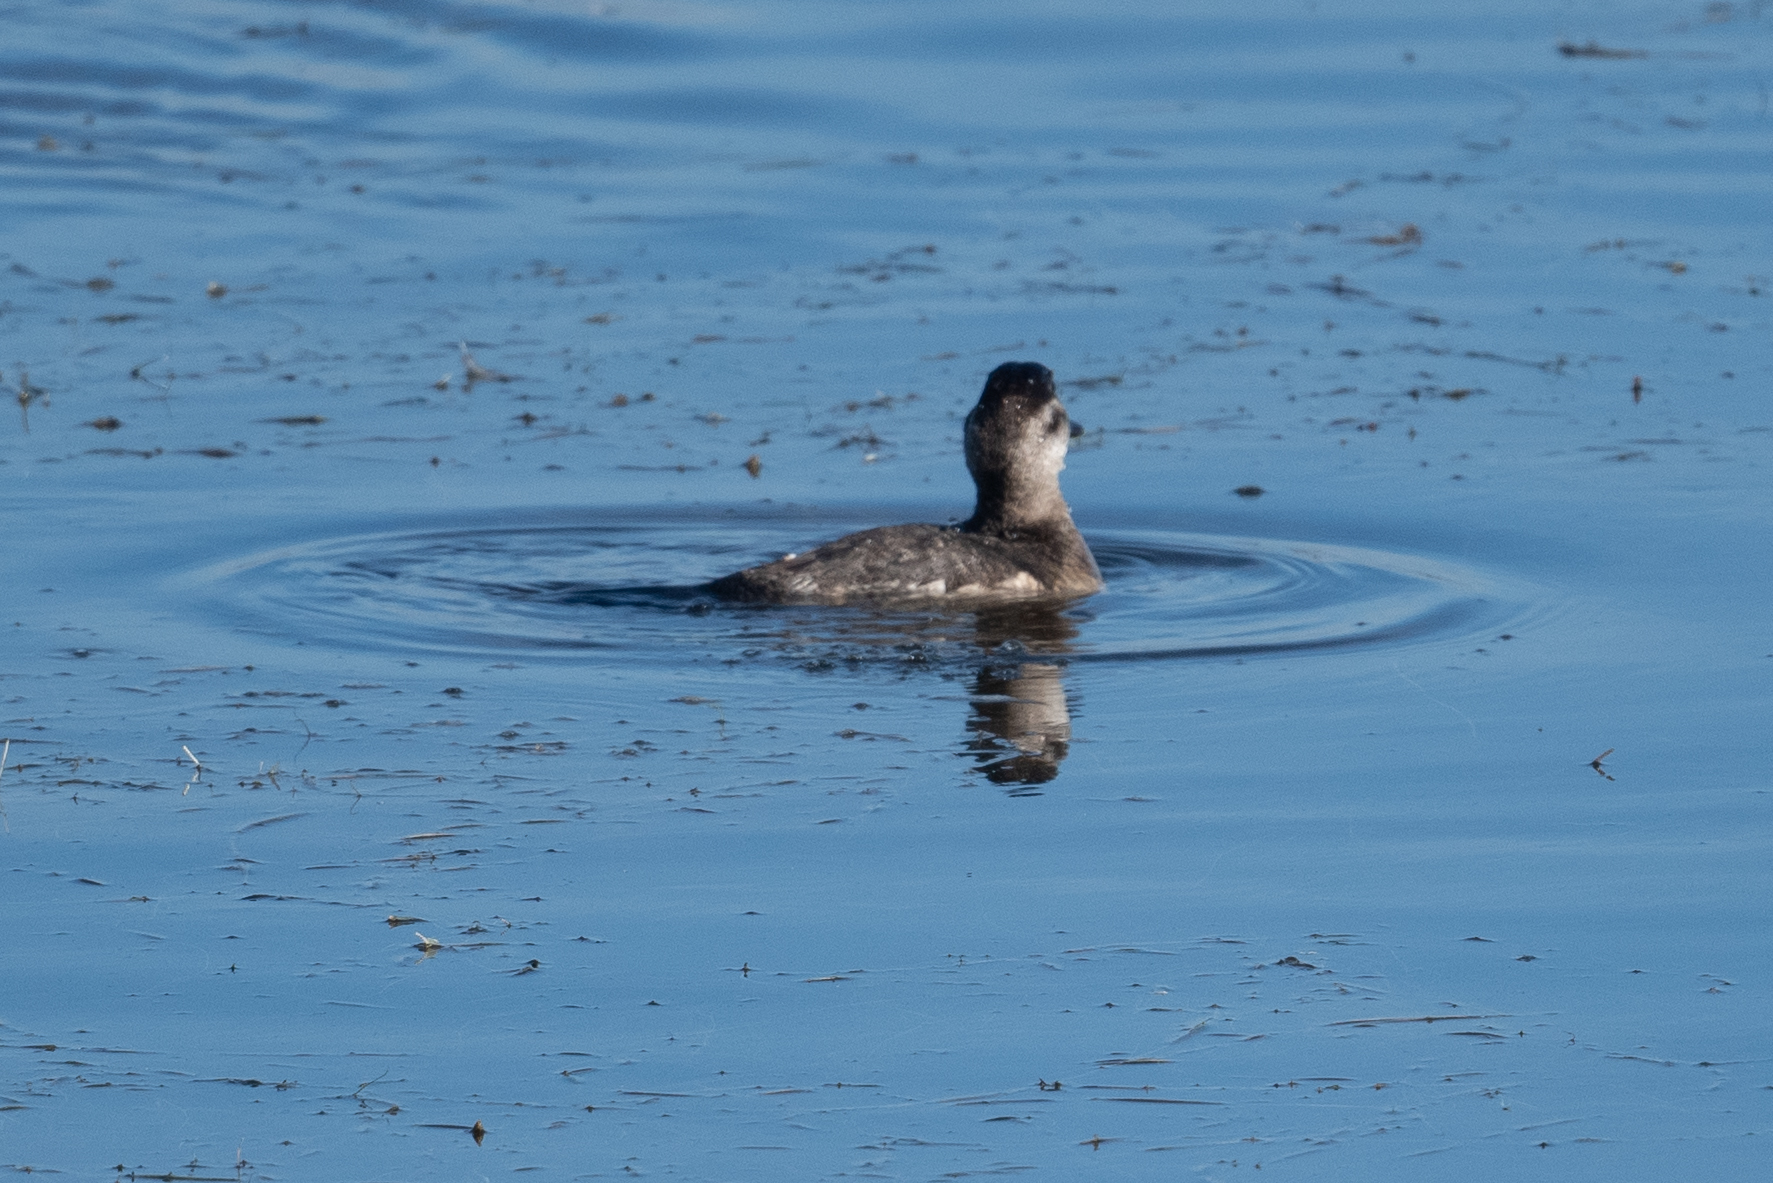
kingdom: Animalia
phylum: Chordata
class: Aves
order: Anseriformes
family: Anatidae
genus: Oxyura
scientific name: Oxyura jamaicensis
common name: Ruddy duck
